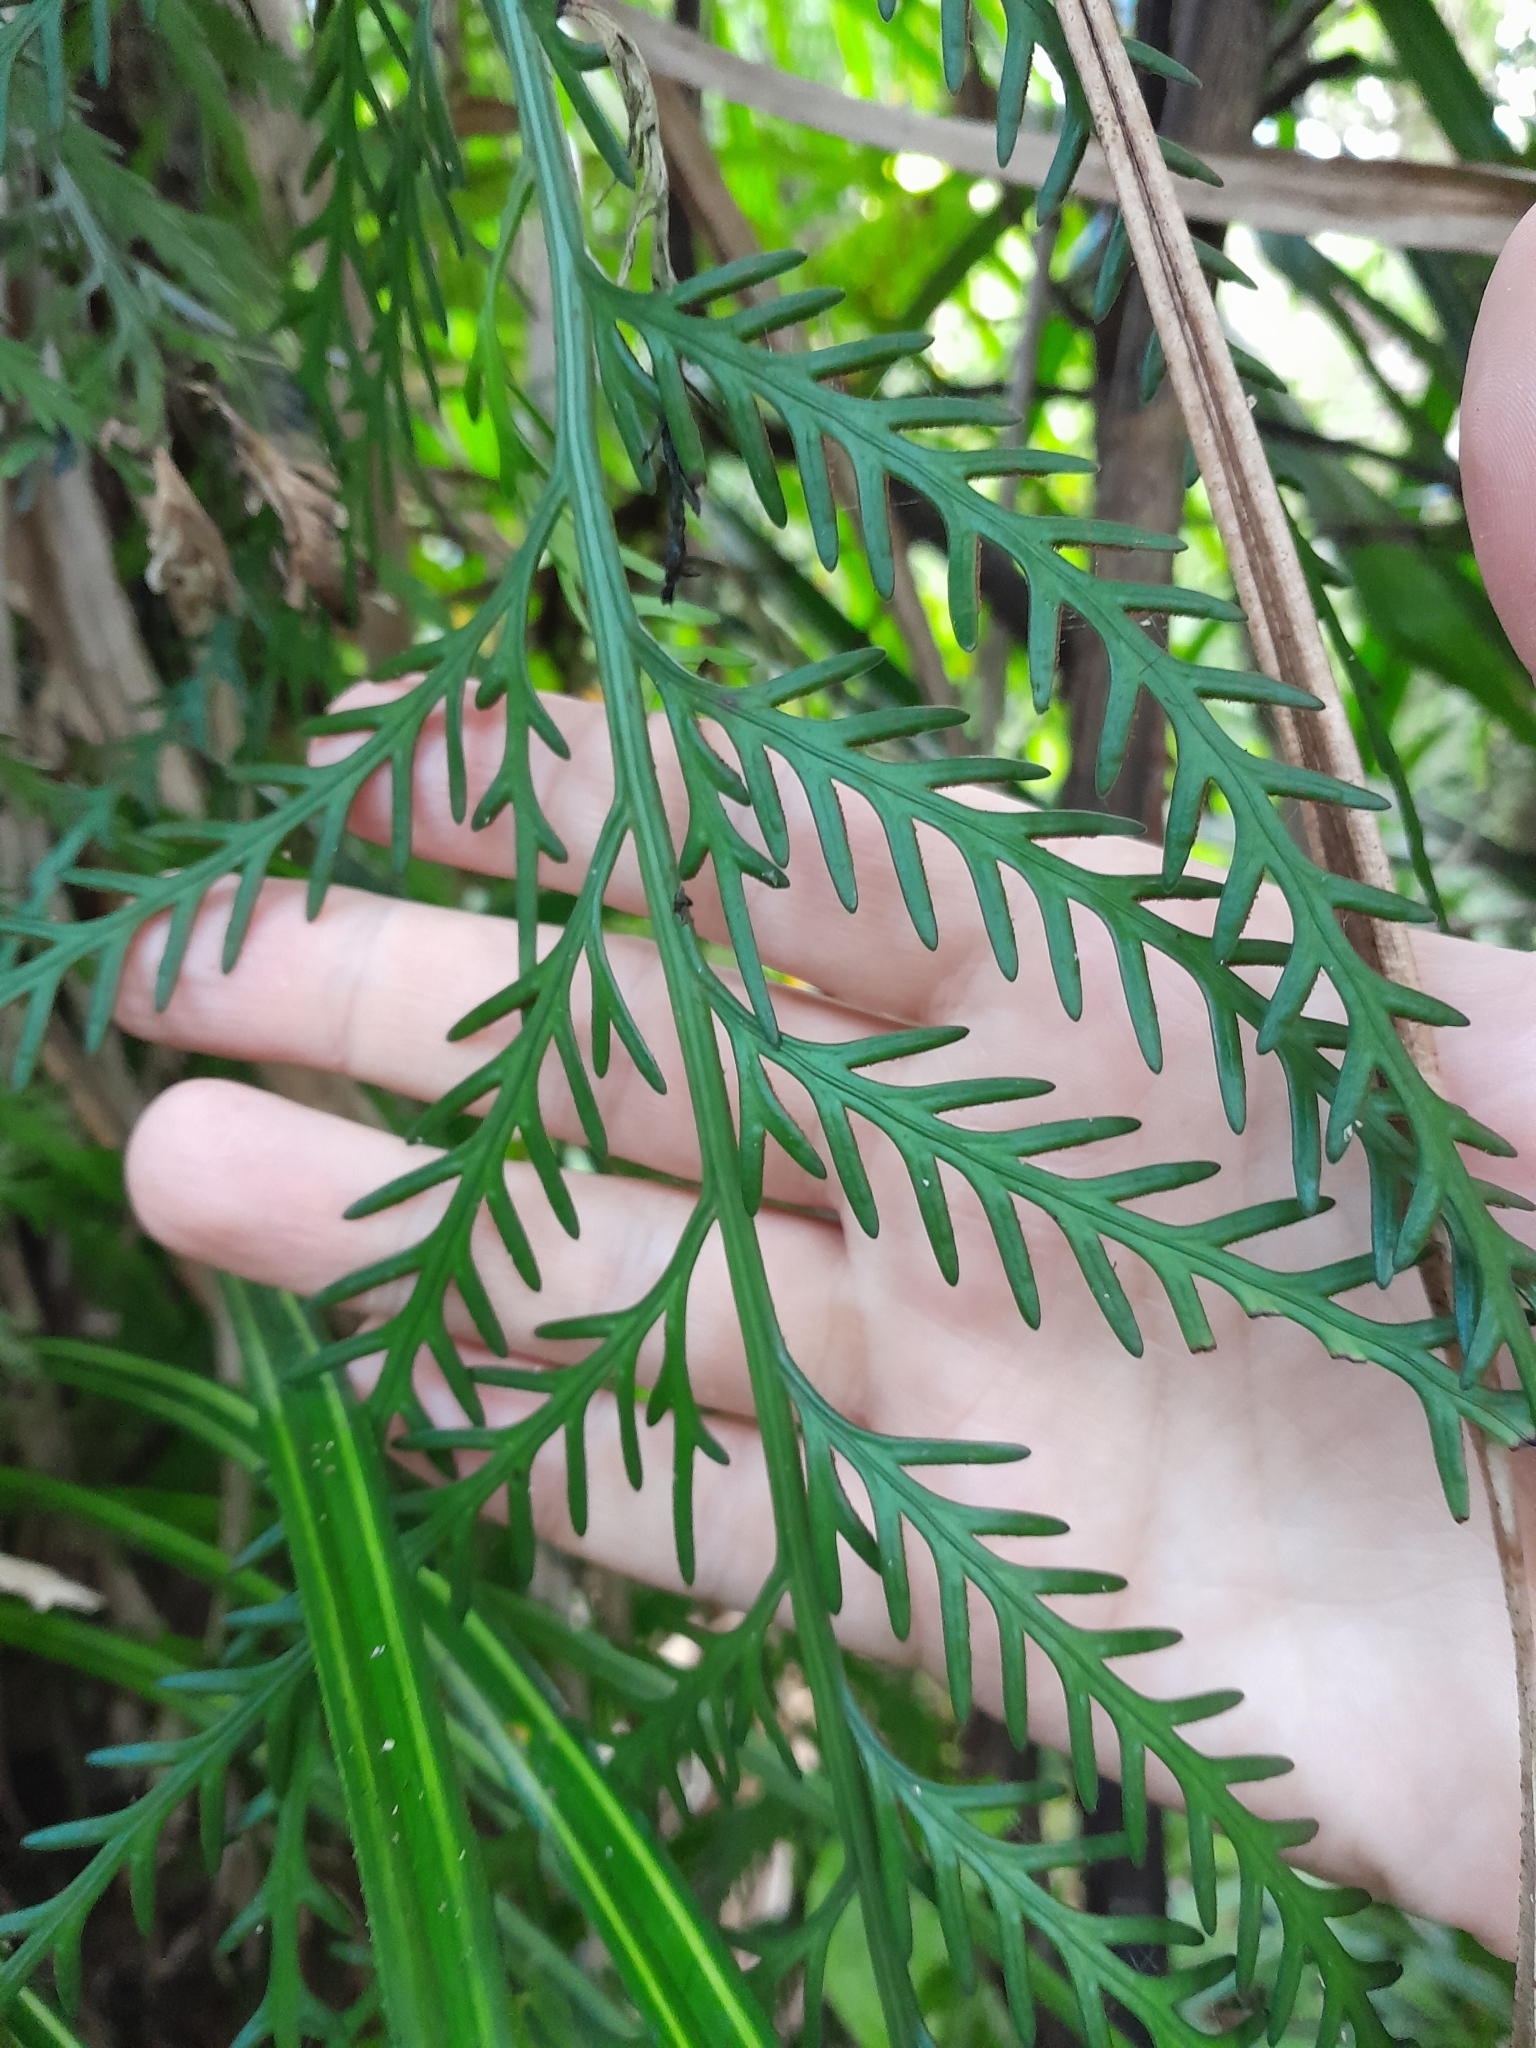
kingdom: Plantae
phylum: Tracheophyta
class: Polypodiopsida
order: Polypodiales
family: Aspleniaceae
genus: Asplenium
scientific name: Asplenium flaccidum
